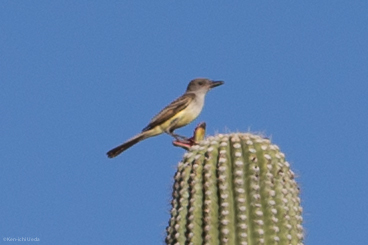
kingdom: Animalia
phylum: Chordata
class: Aves
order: Passeriformes
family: Tyrannidae
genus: Myiarchus
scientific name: Myiarchus tyrannulus
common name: Brown-crested flycatcher
